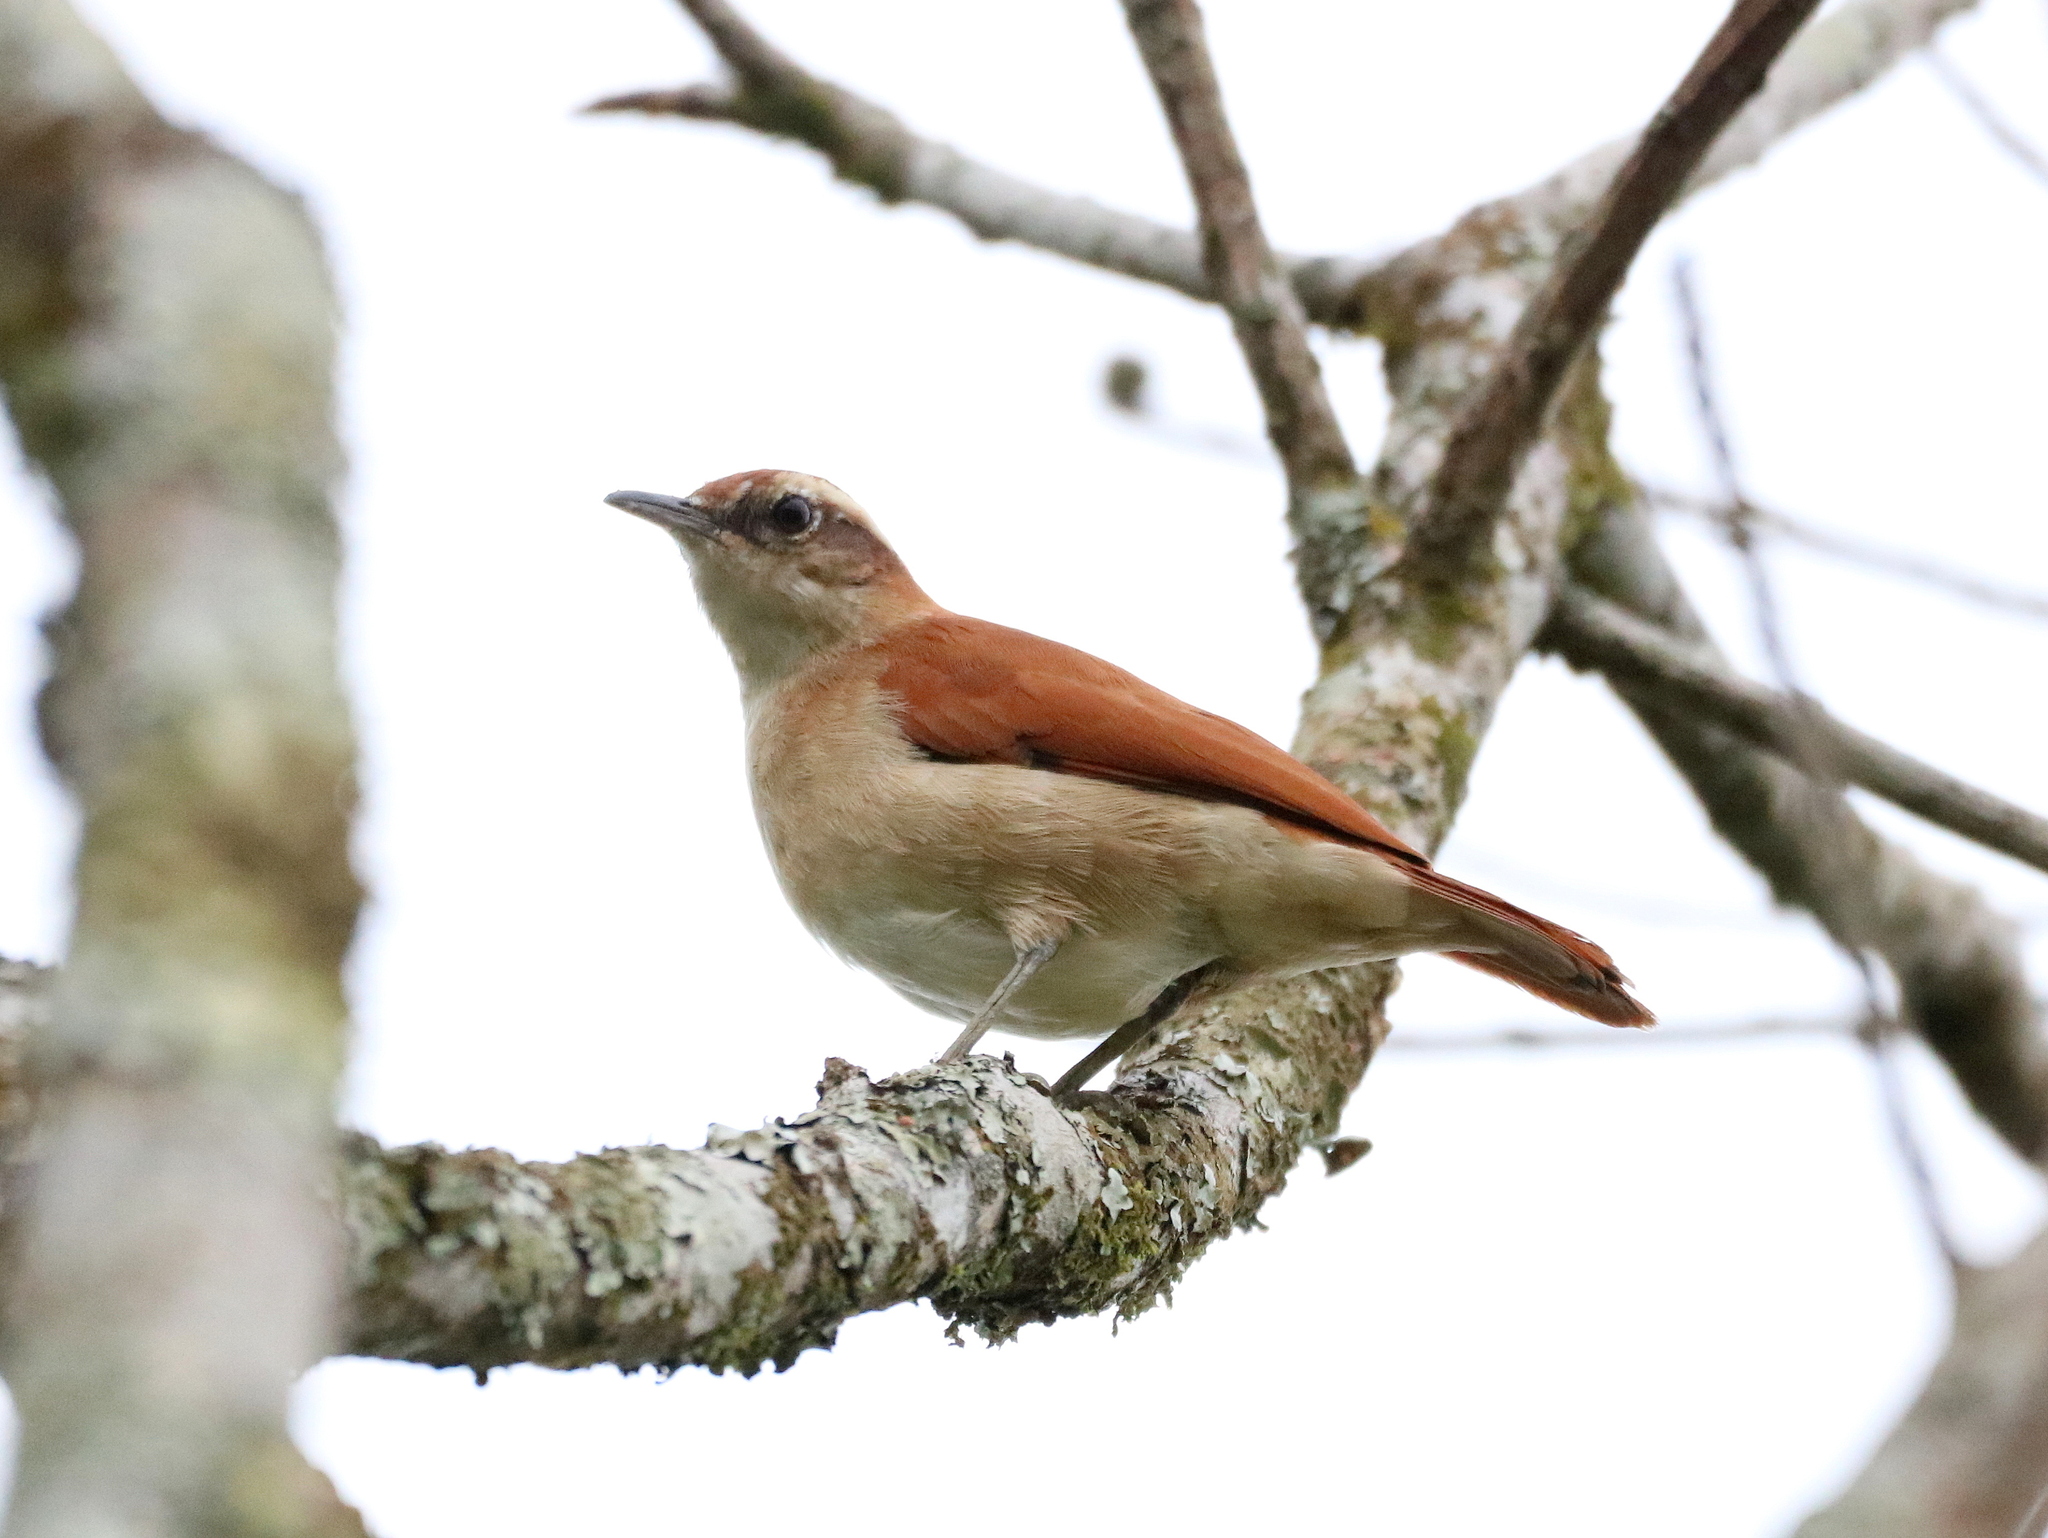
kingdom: Animalia
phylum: Chordata
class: Aves
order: Passeriformes
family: Furnariidae
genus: Furnarius
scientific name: Furnarius figulus
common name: Band-tailed hornero
